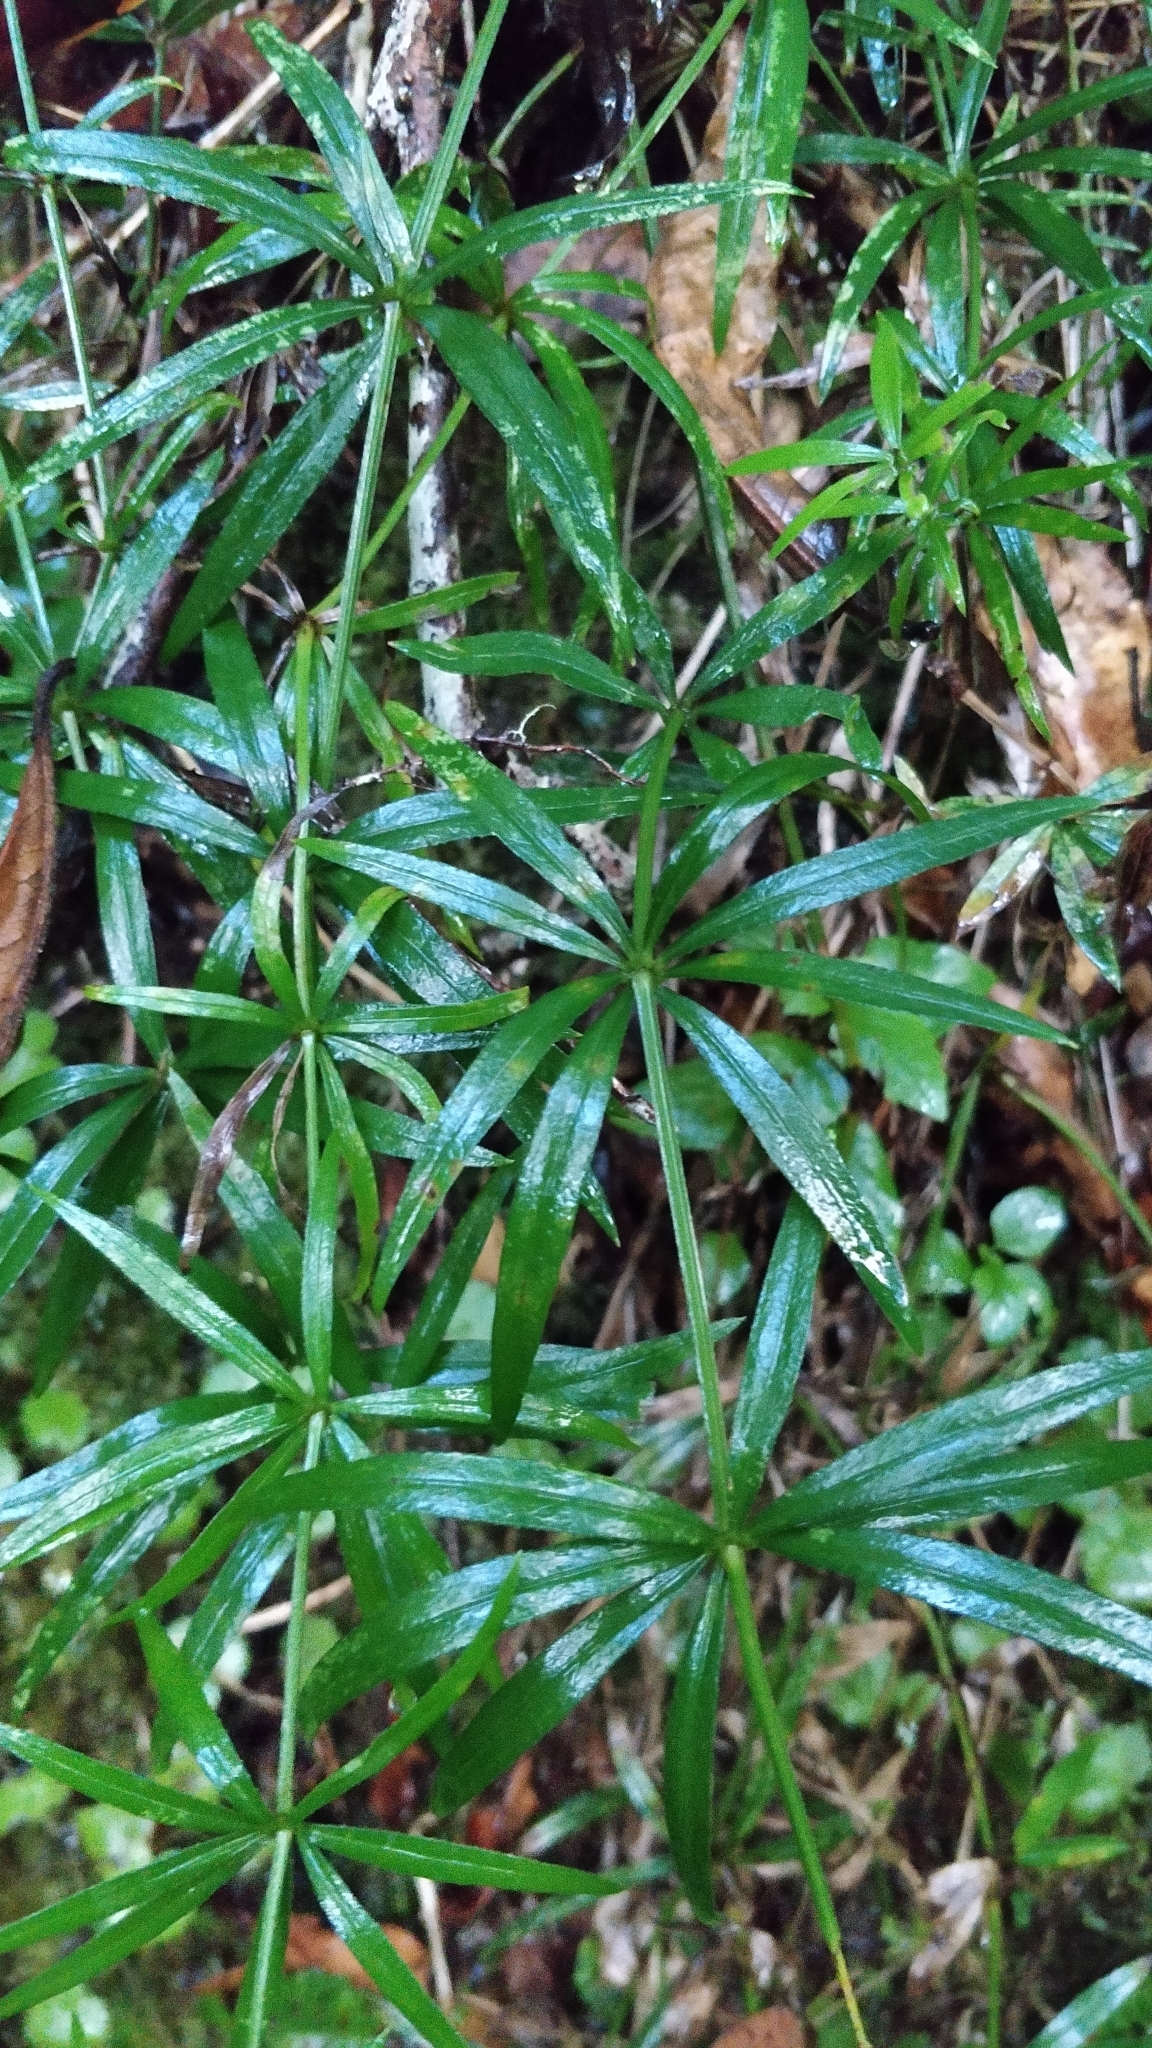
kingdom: Plantae
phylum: Tracheophyta
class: Magnoliopsida
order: Gentianales
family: Rubiaceae
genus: Rubia
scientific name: Rubia occidens
